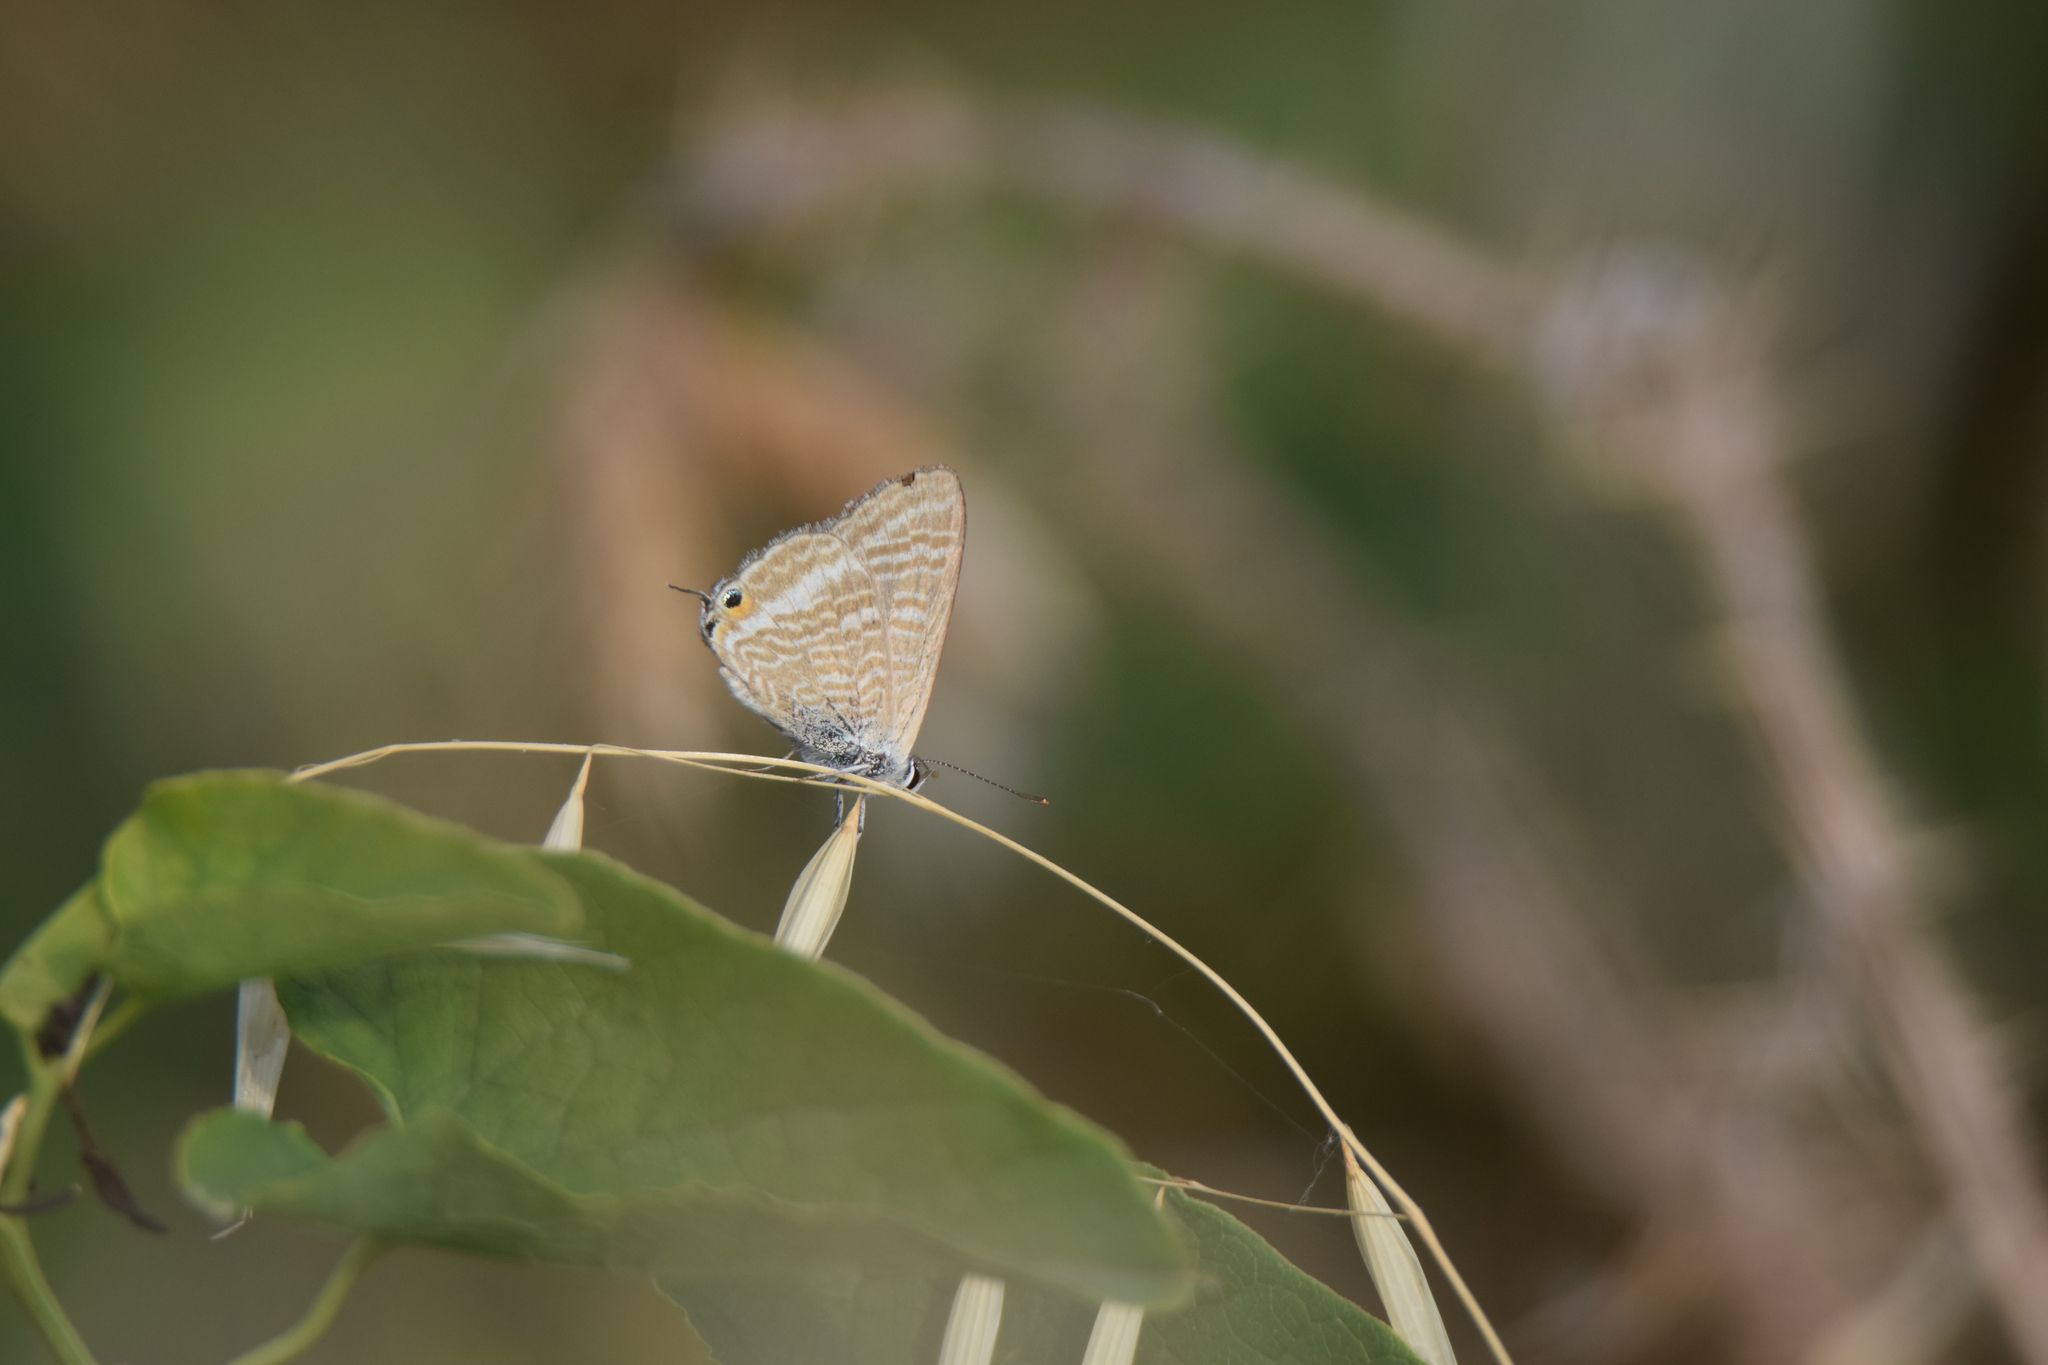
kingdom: Animalia
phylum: Arthropoda
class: Insecta
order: Lepidoptera
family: Lycaenidae
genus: Lampides
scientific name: Lampides boeticus
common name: Long-tailed blue
